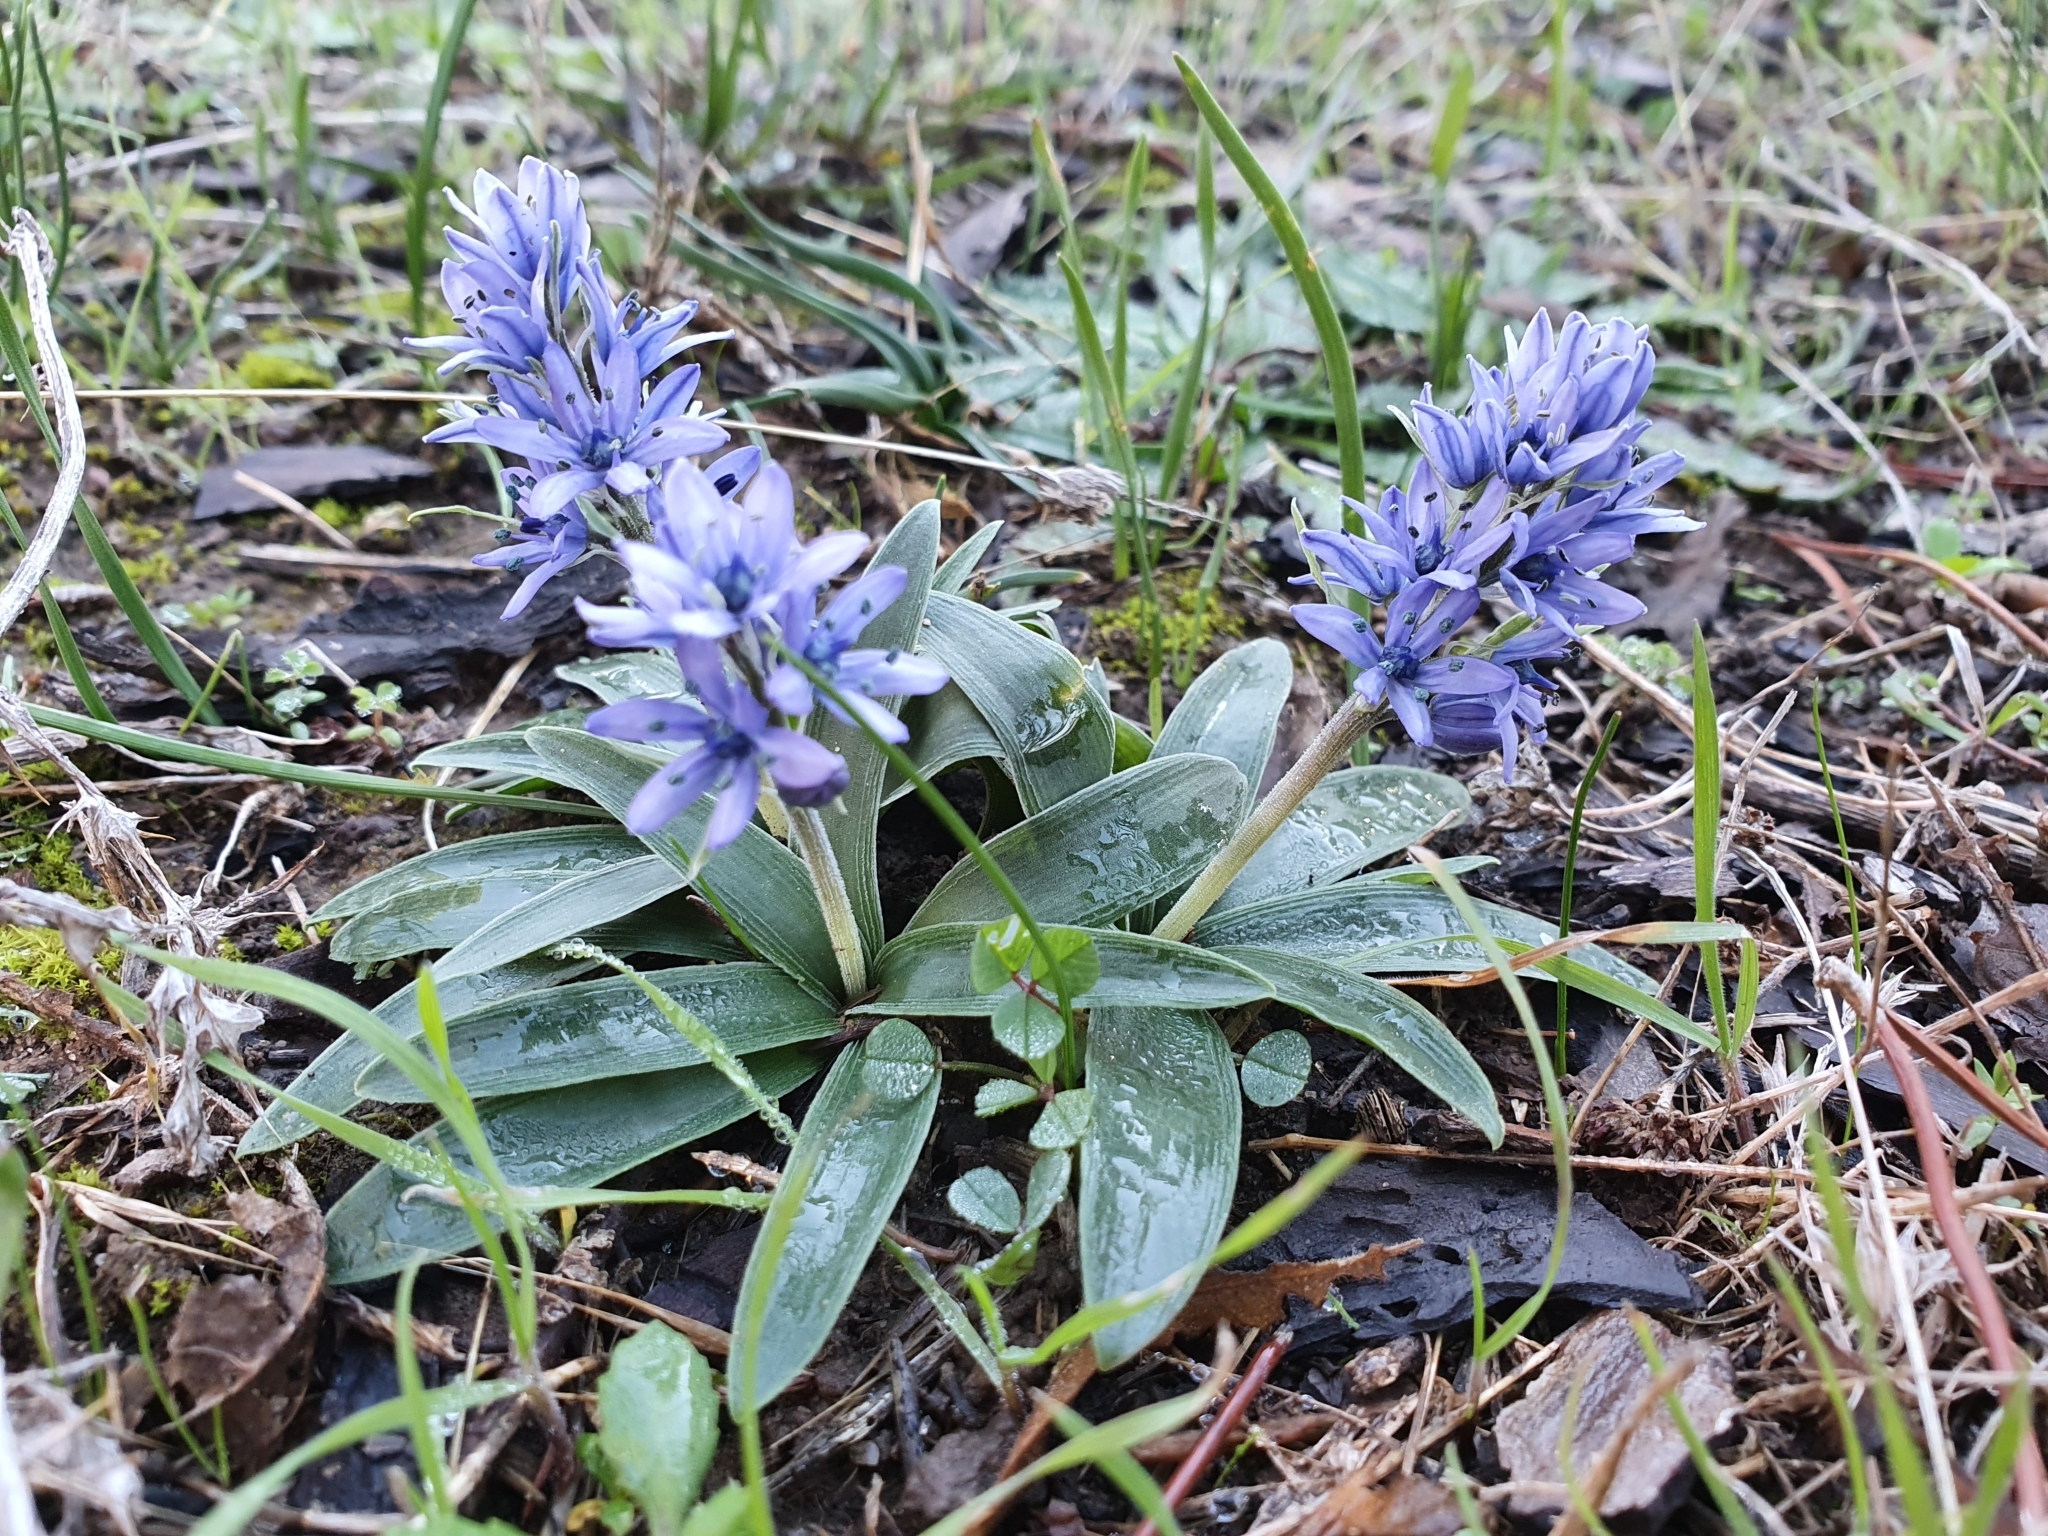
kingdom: Plantae
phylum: Tracheophyta
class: Liliopsida
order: Asparagales
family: Asparagaceae
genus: Hyacinthoides
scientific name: Hyacinthoides lingulata
